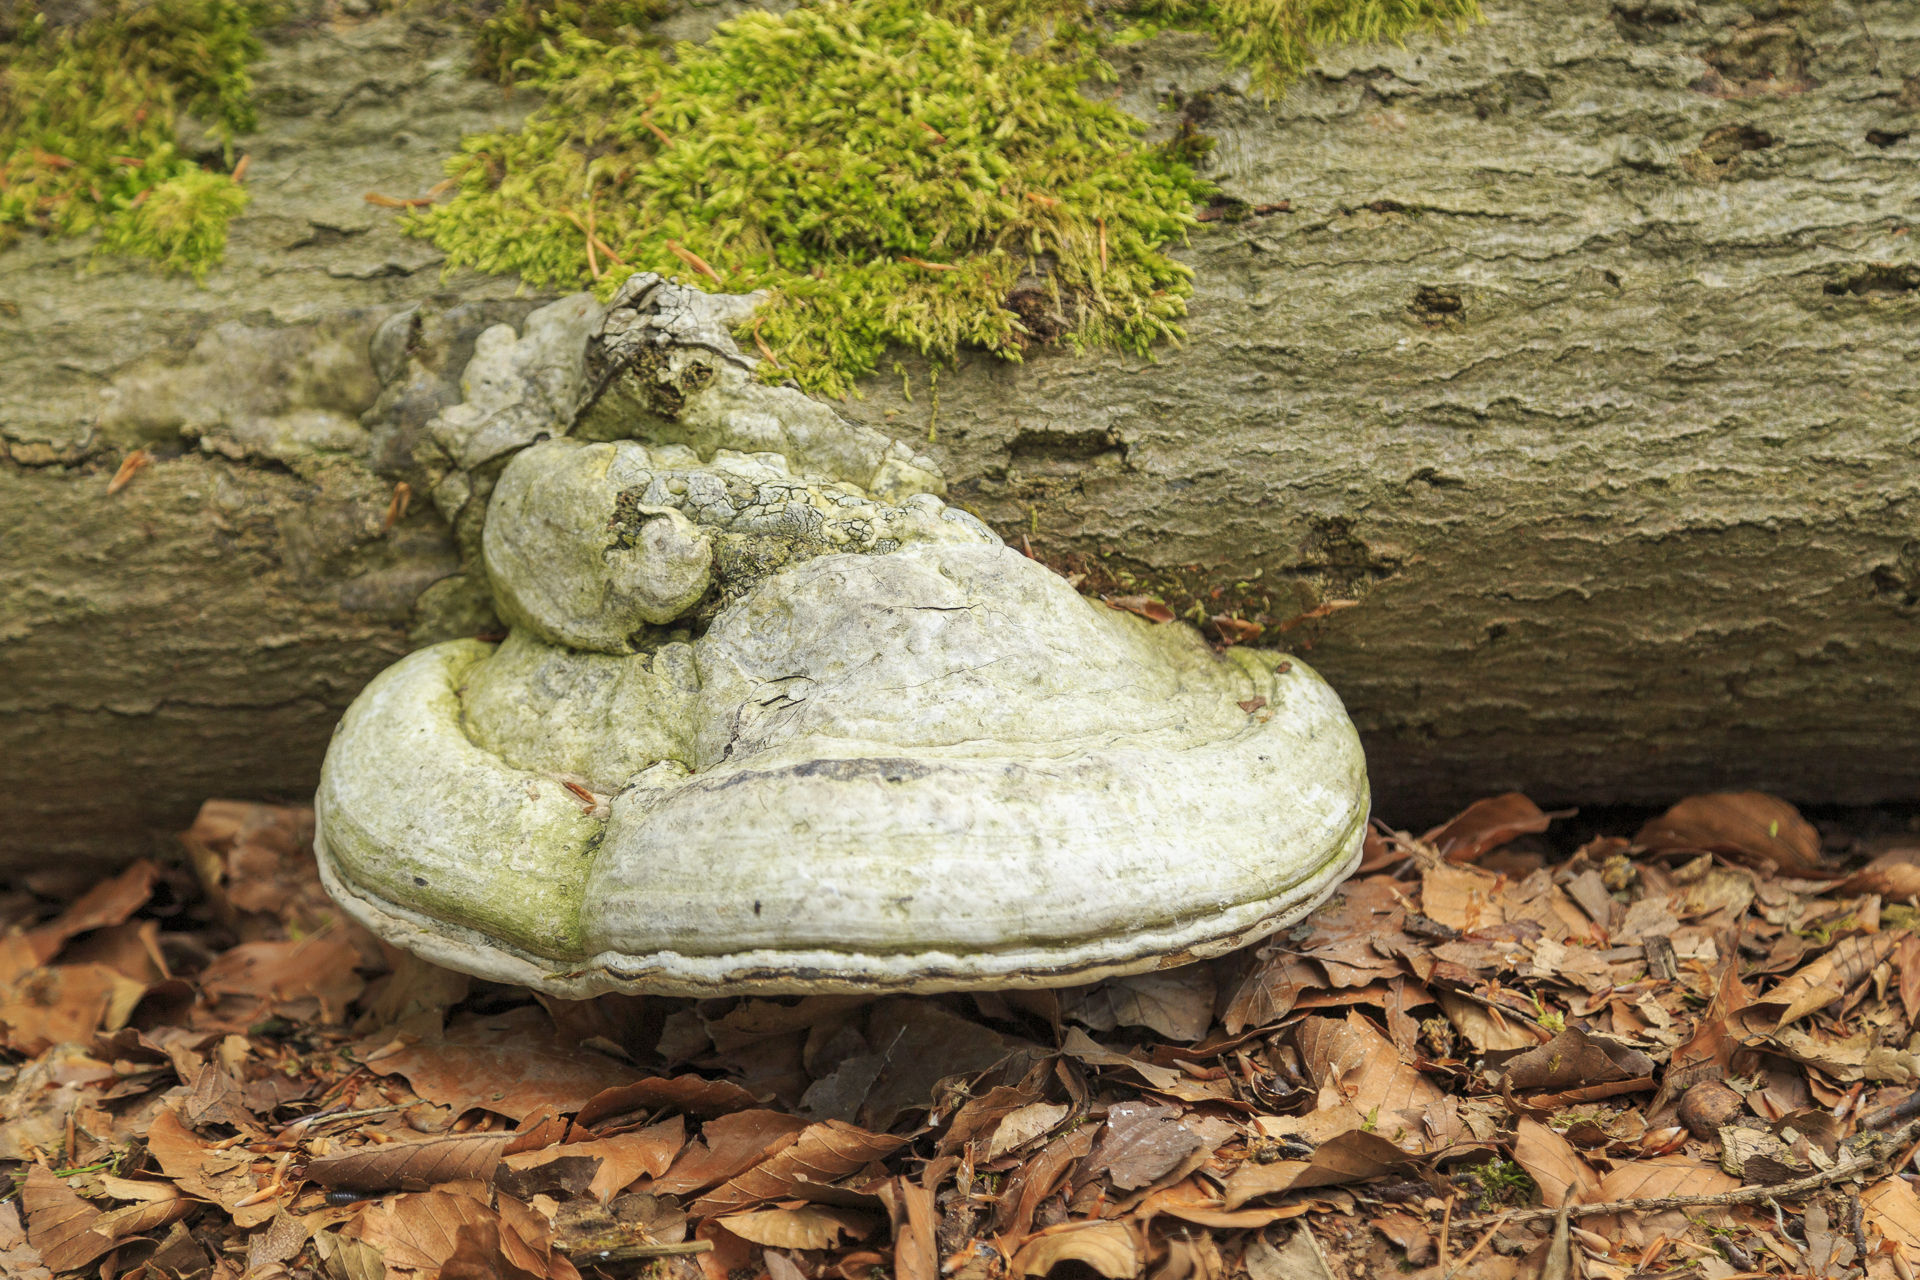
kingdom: Fungi
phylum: Basidiomycota
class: Agaricomycetes
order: Polyporales
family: Polyporaceae
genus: Fomes
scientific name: Fomes fomentarius
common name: Hoof fungus
